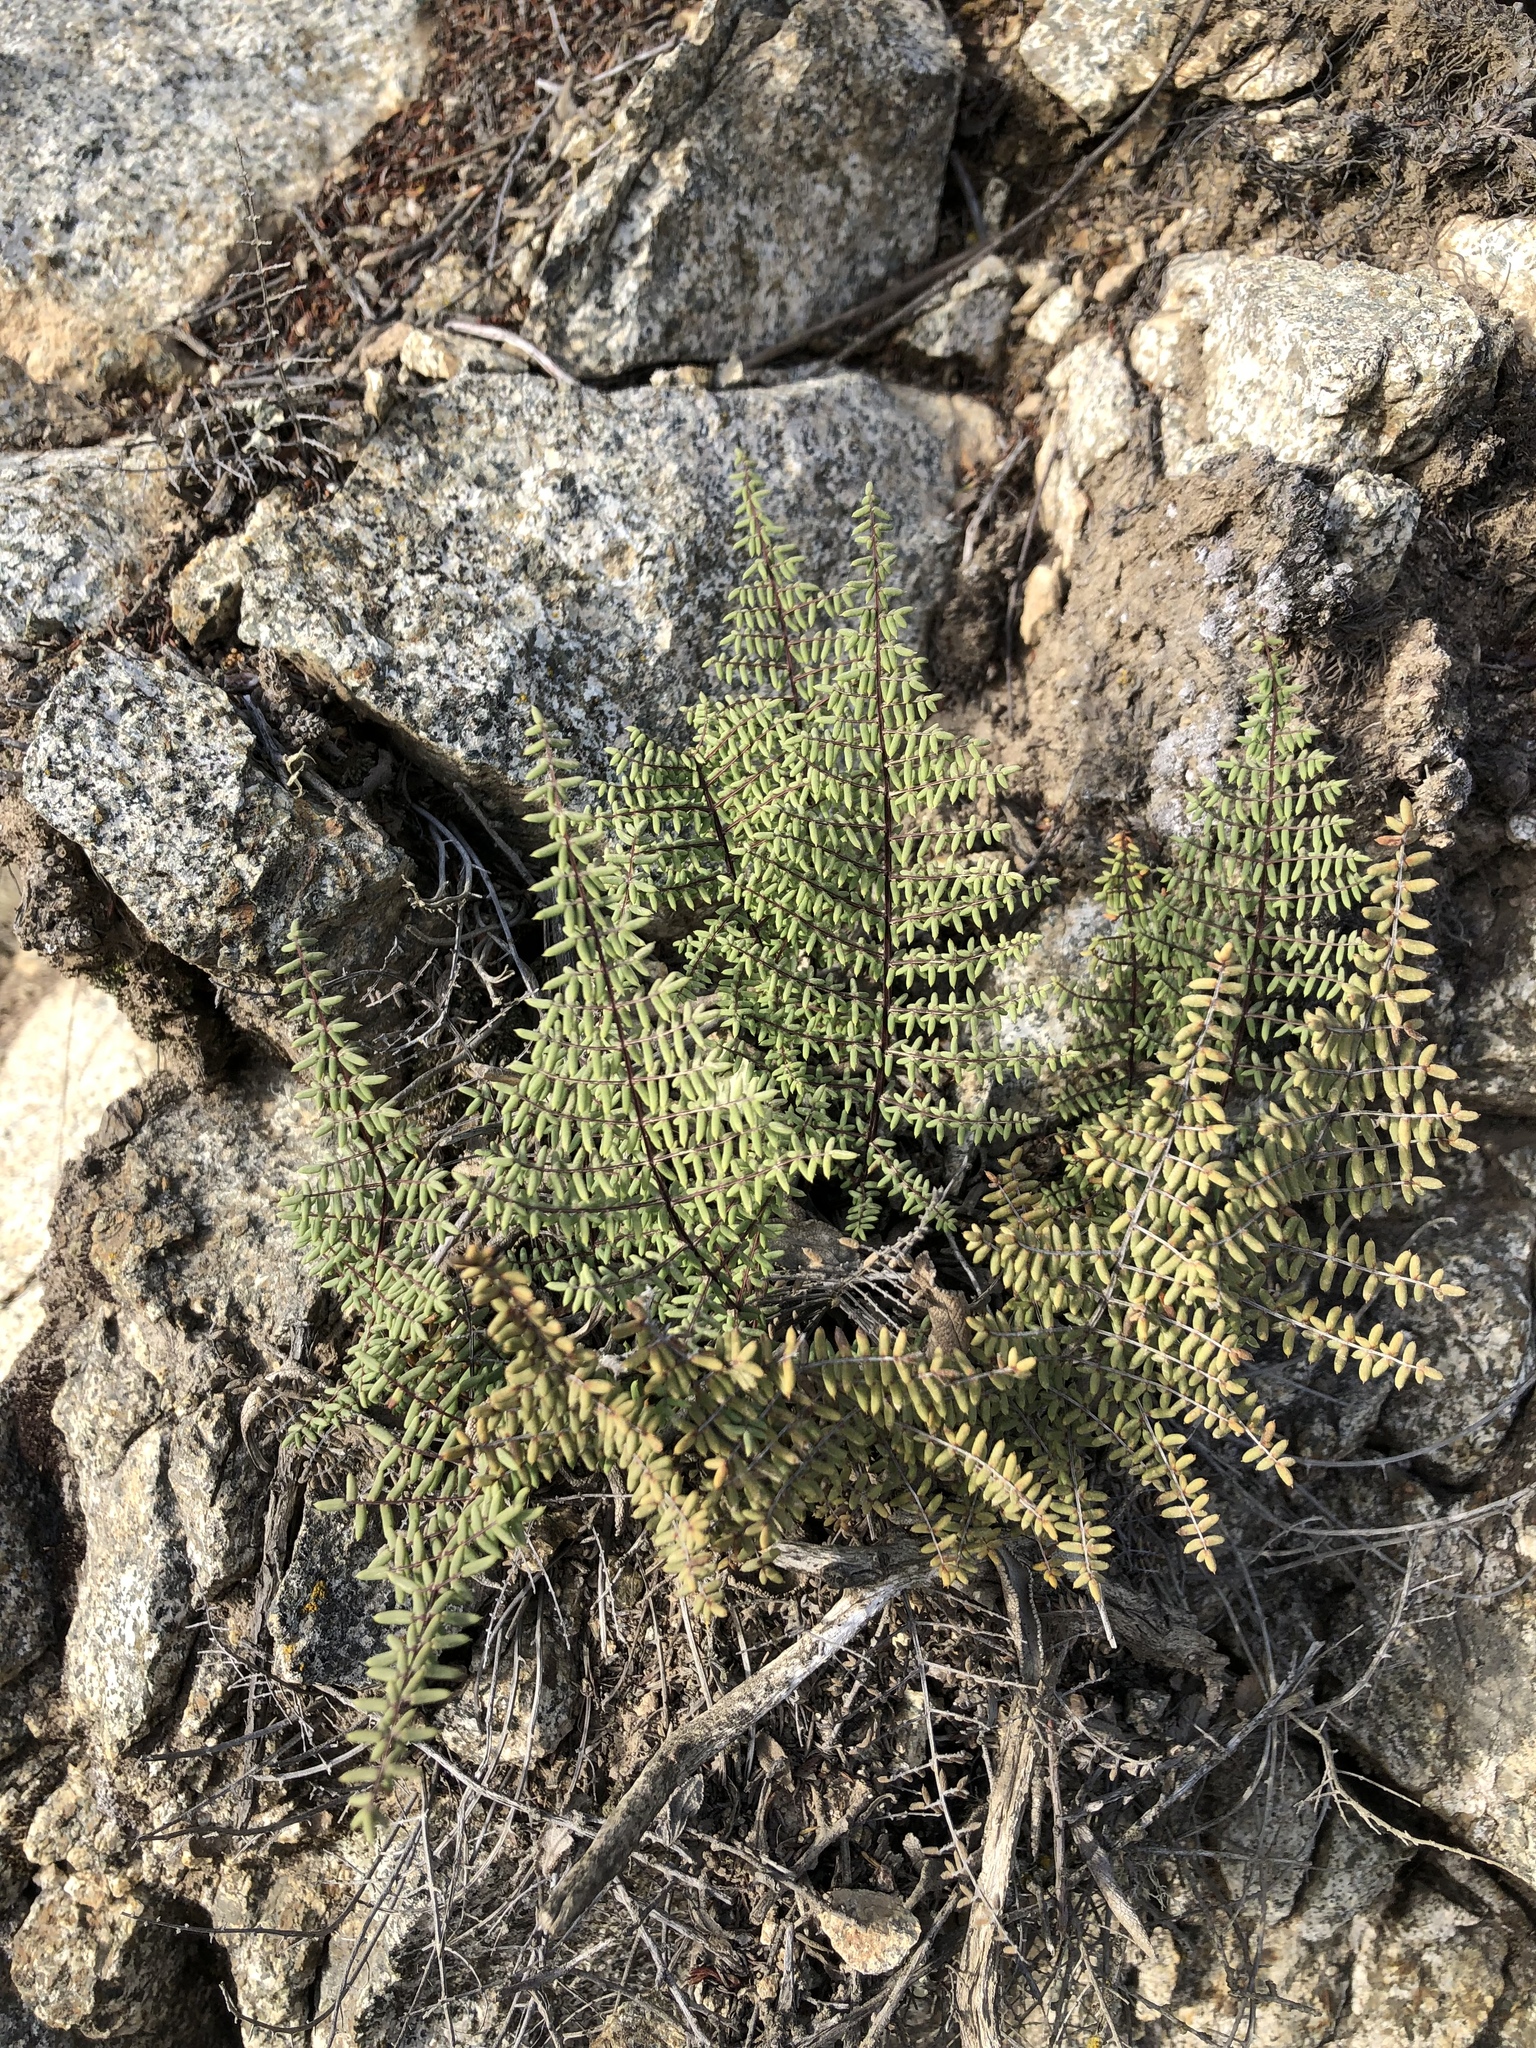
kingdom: Plantae
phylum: Tracheophyta
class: Polypodiopsida
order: Polypodiales
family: Pteridaceae
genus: Pellaea
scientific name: Pellaea mucronata
